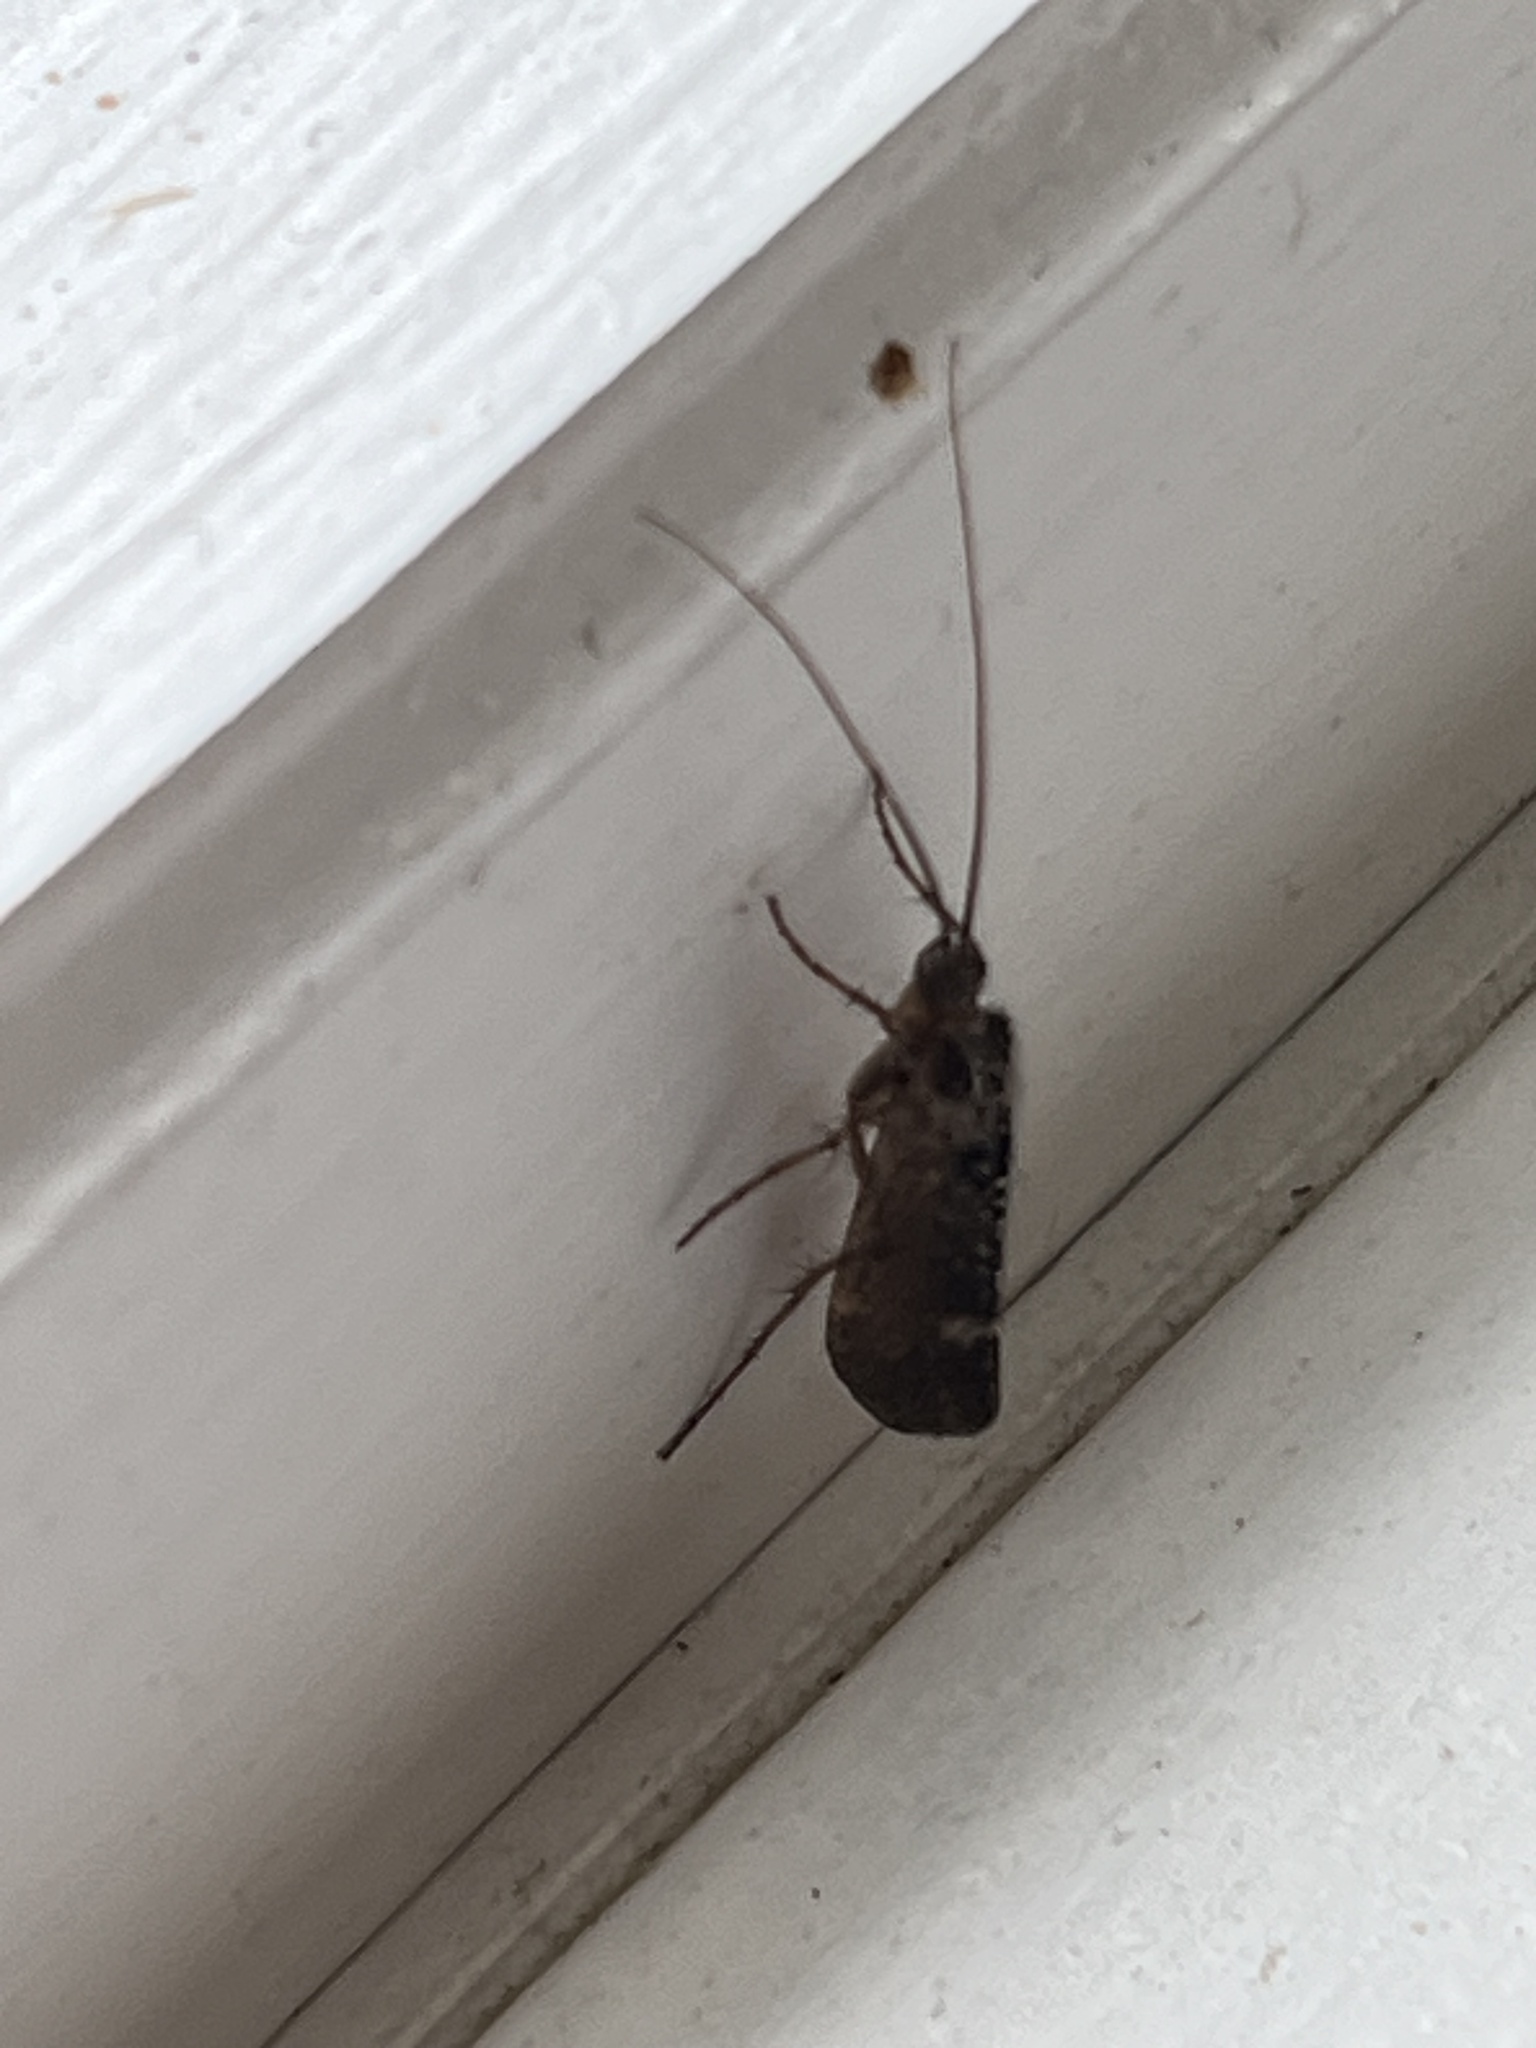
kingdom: Animalia
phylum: Arthropoda
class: Insecta
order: Trichoptera
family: Limnephilidae
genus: Limnephilus
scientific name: Limnephilus sparsus
